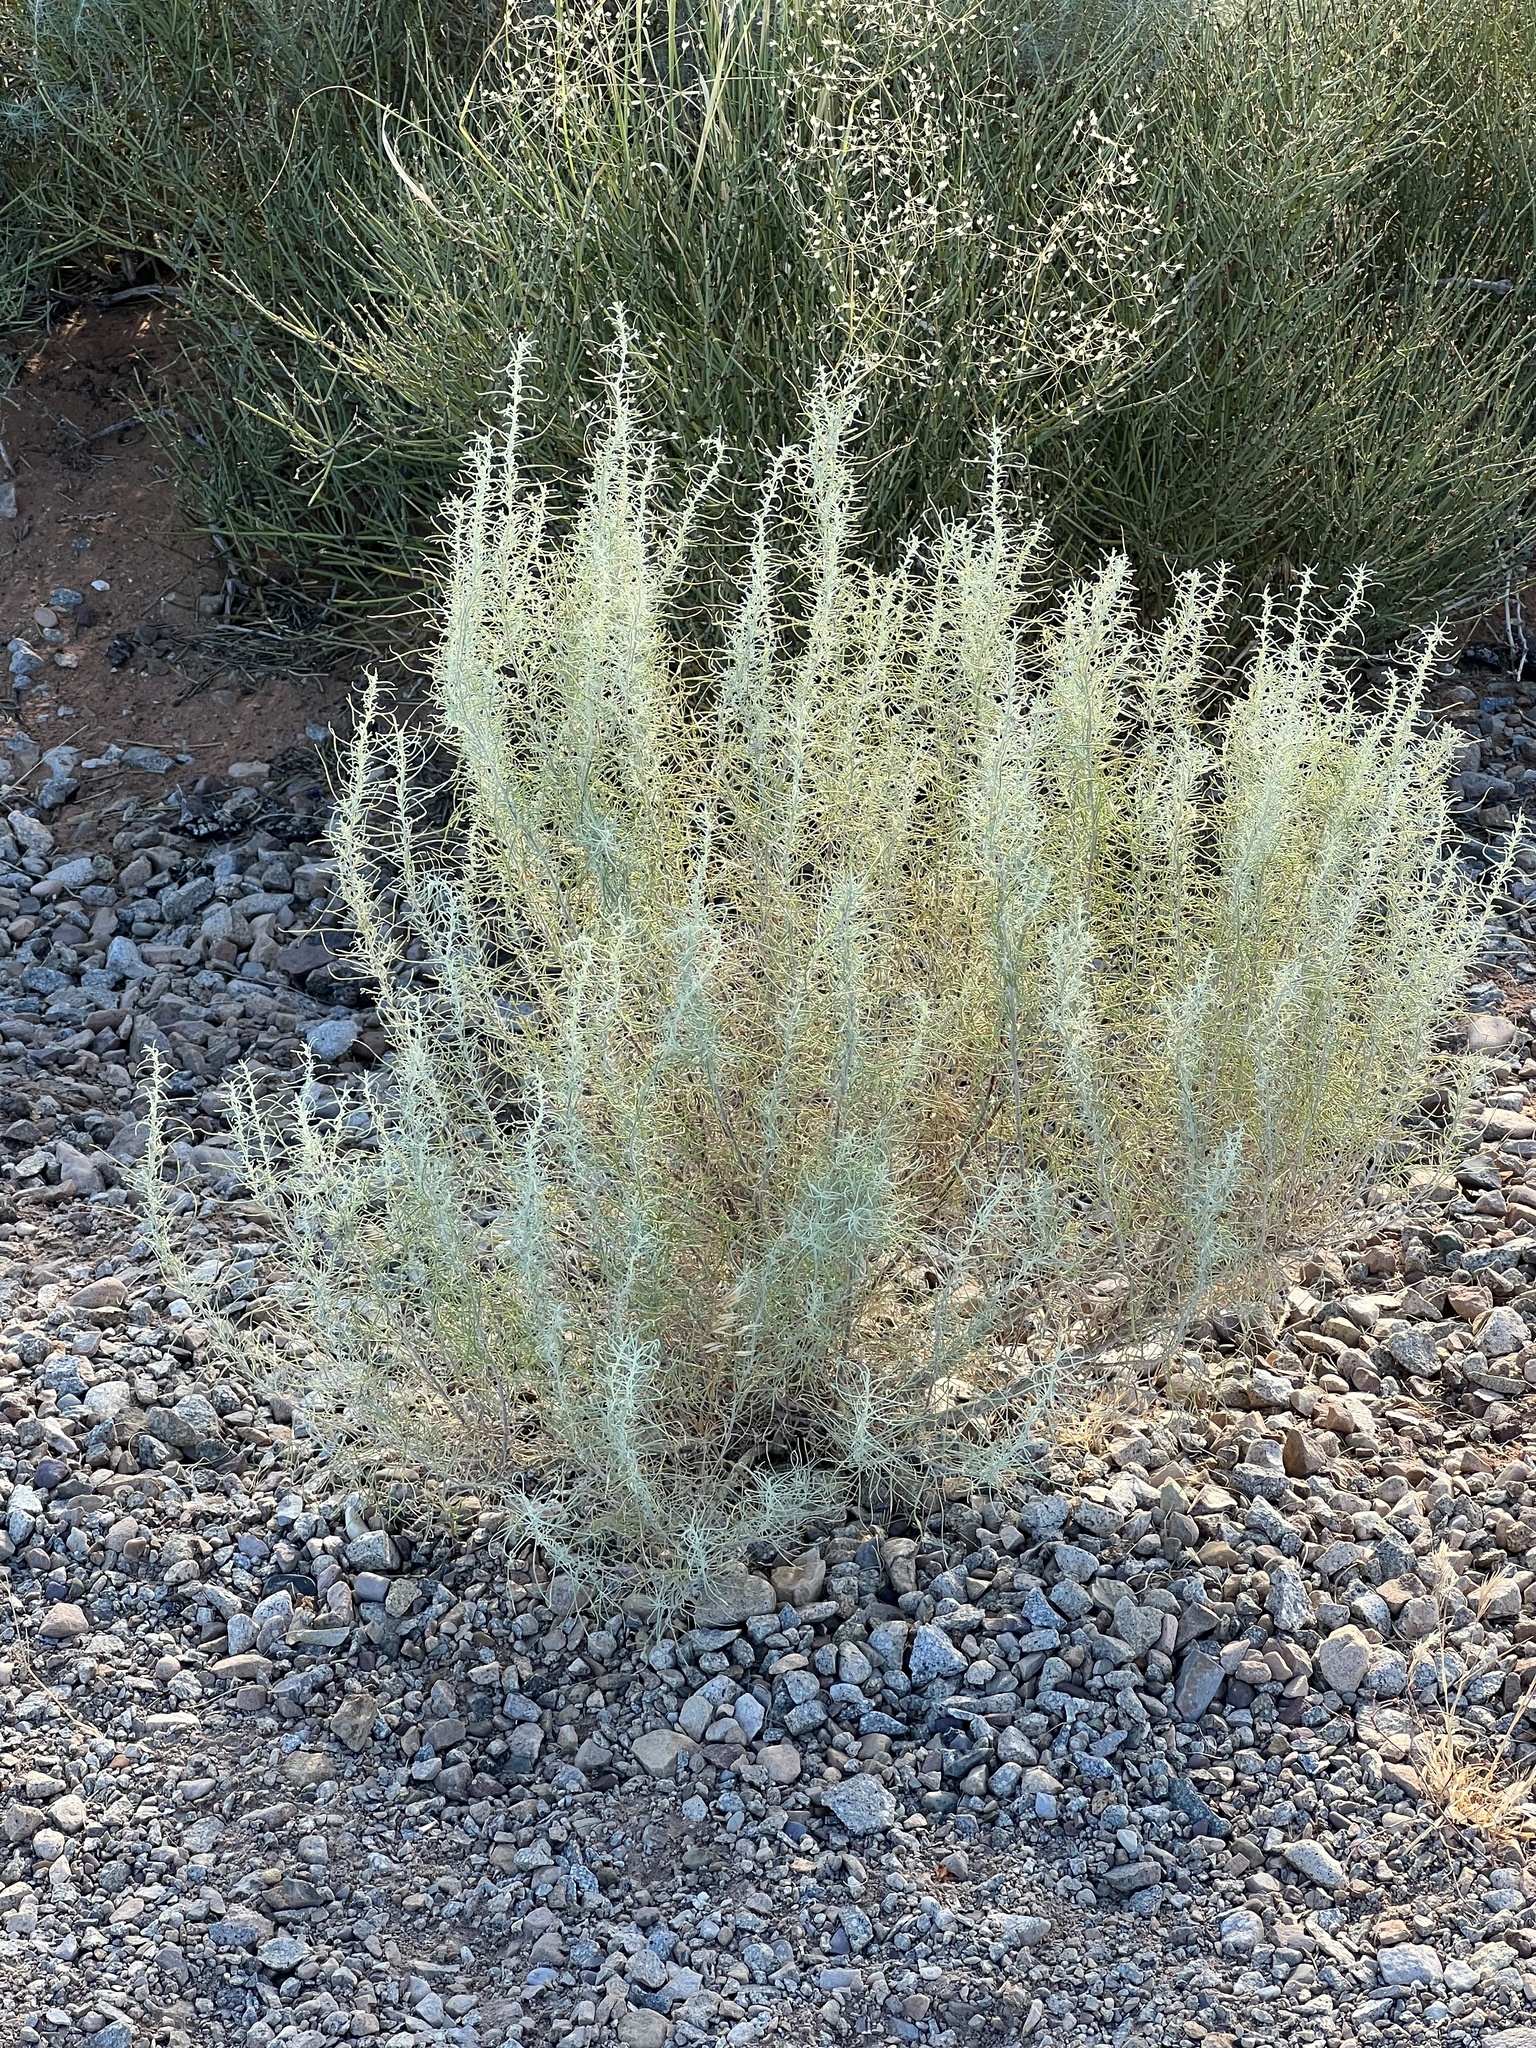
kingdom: Plantae
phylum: Tracheophyta
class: Magnoliopsida
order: Asterales
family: Asteraceae
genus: Artemisia
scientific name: Artemisia filifolia
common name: Sand-sage
